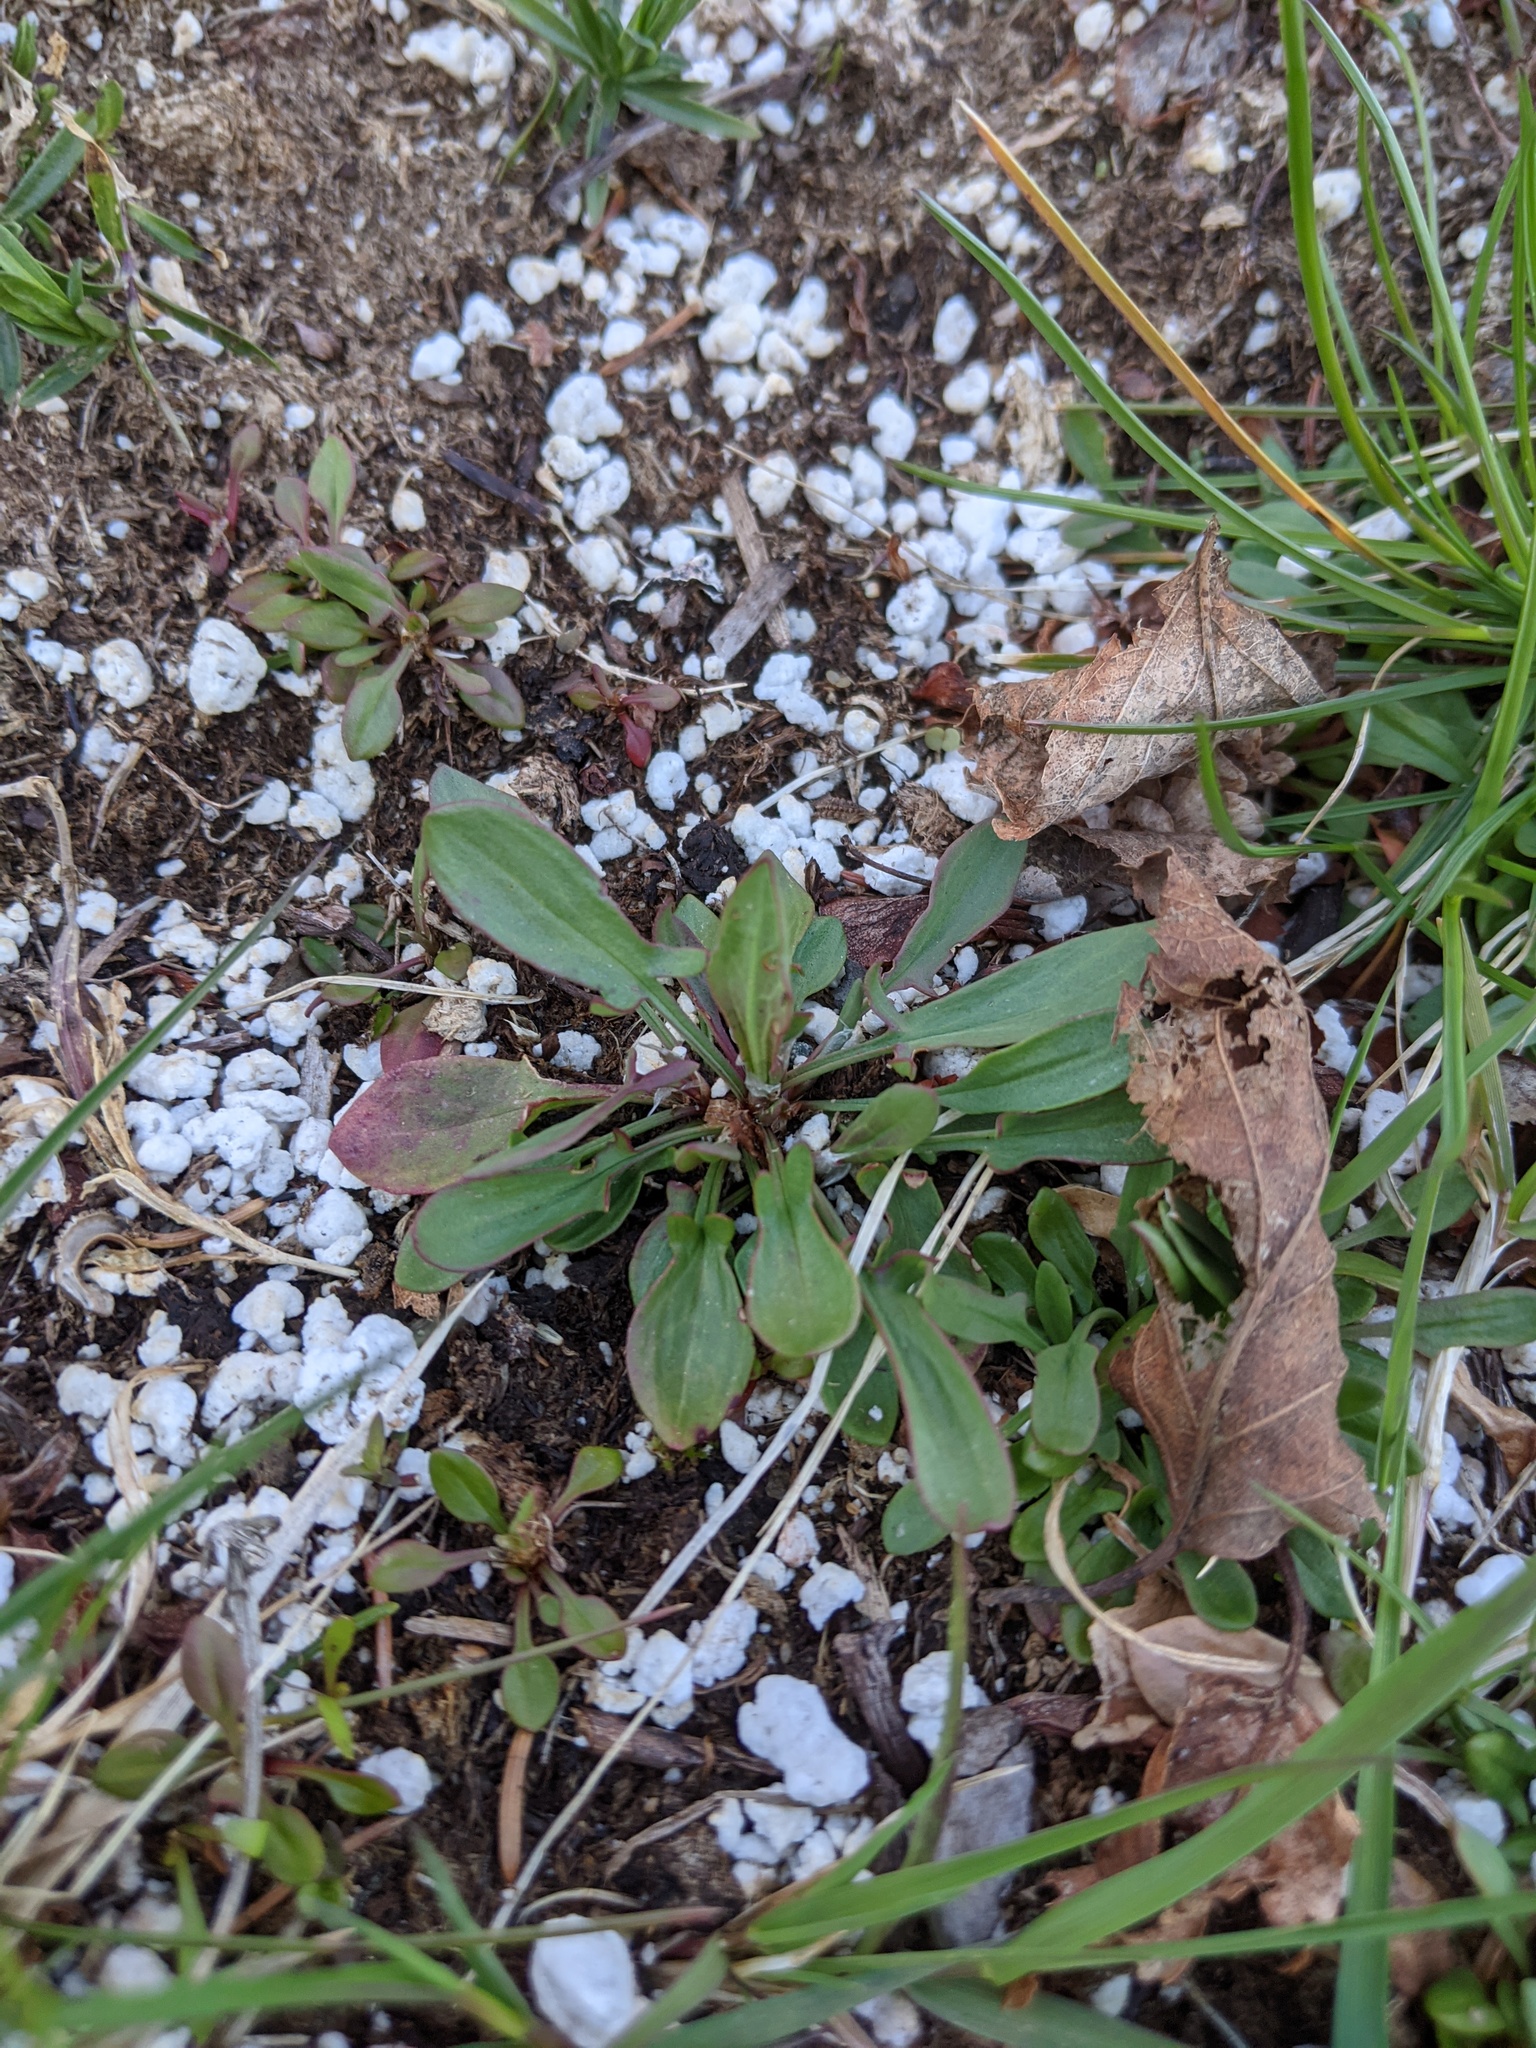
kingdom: Plantae
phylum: Tracheophyta
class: Magnoliopsida
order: Caryophyllales
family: Polygonaceae
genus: Rumex
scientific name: Rumex acetosella
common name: Common sheep sorrel
